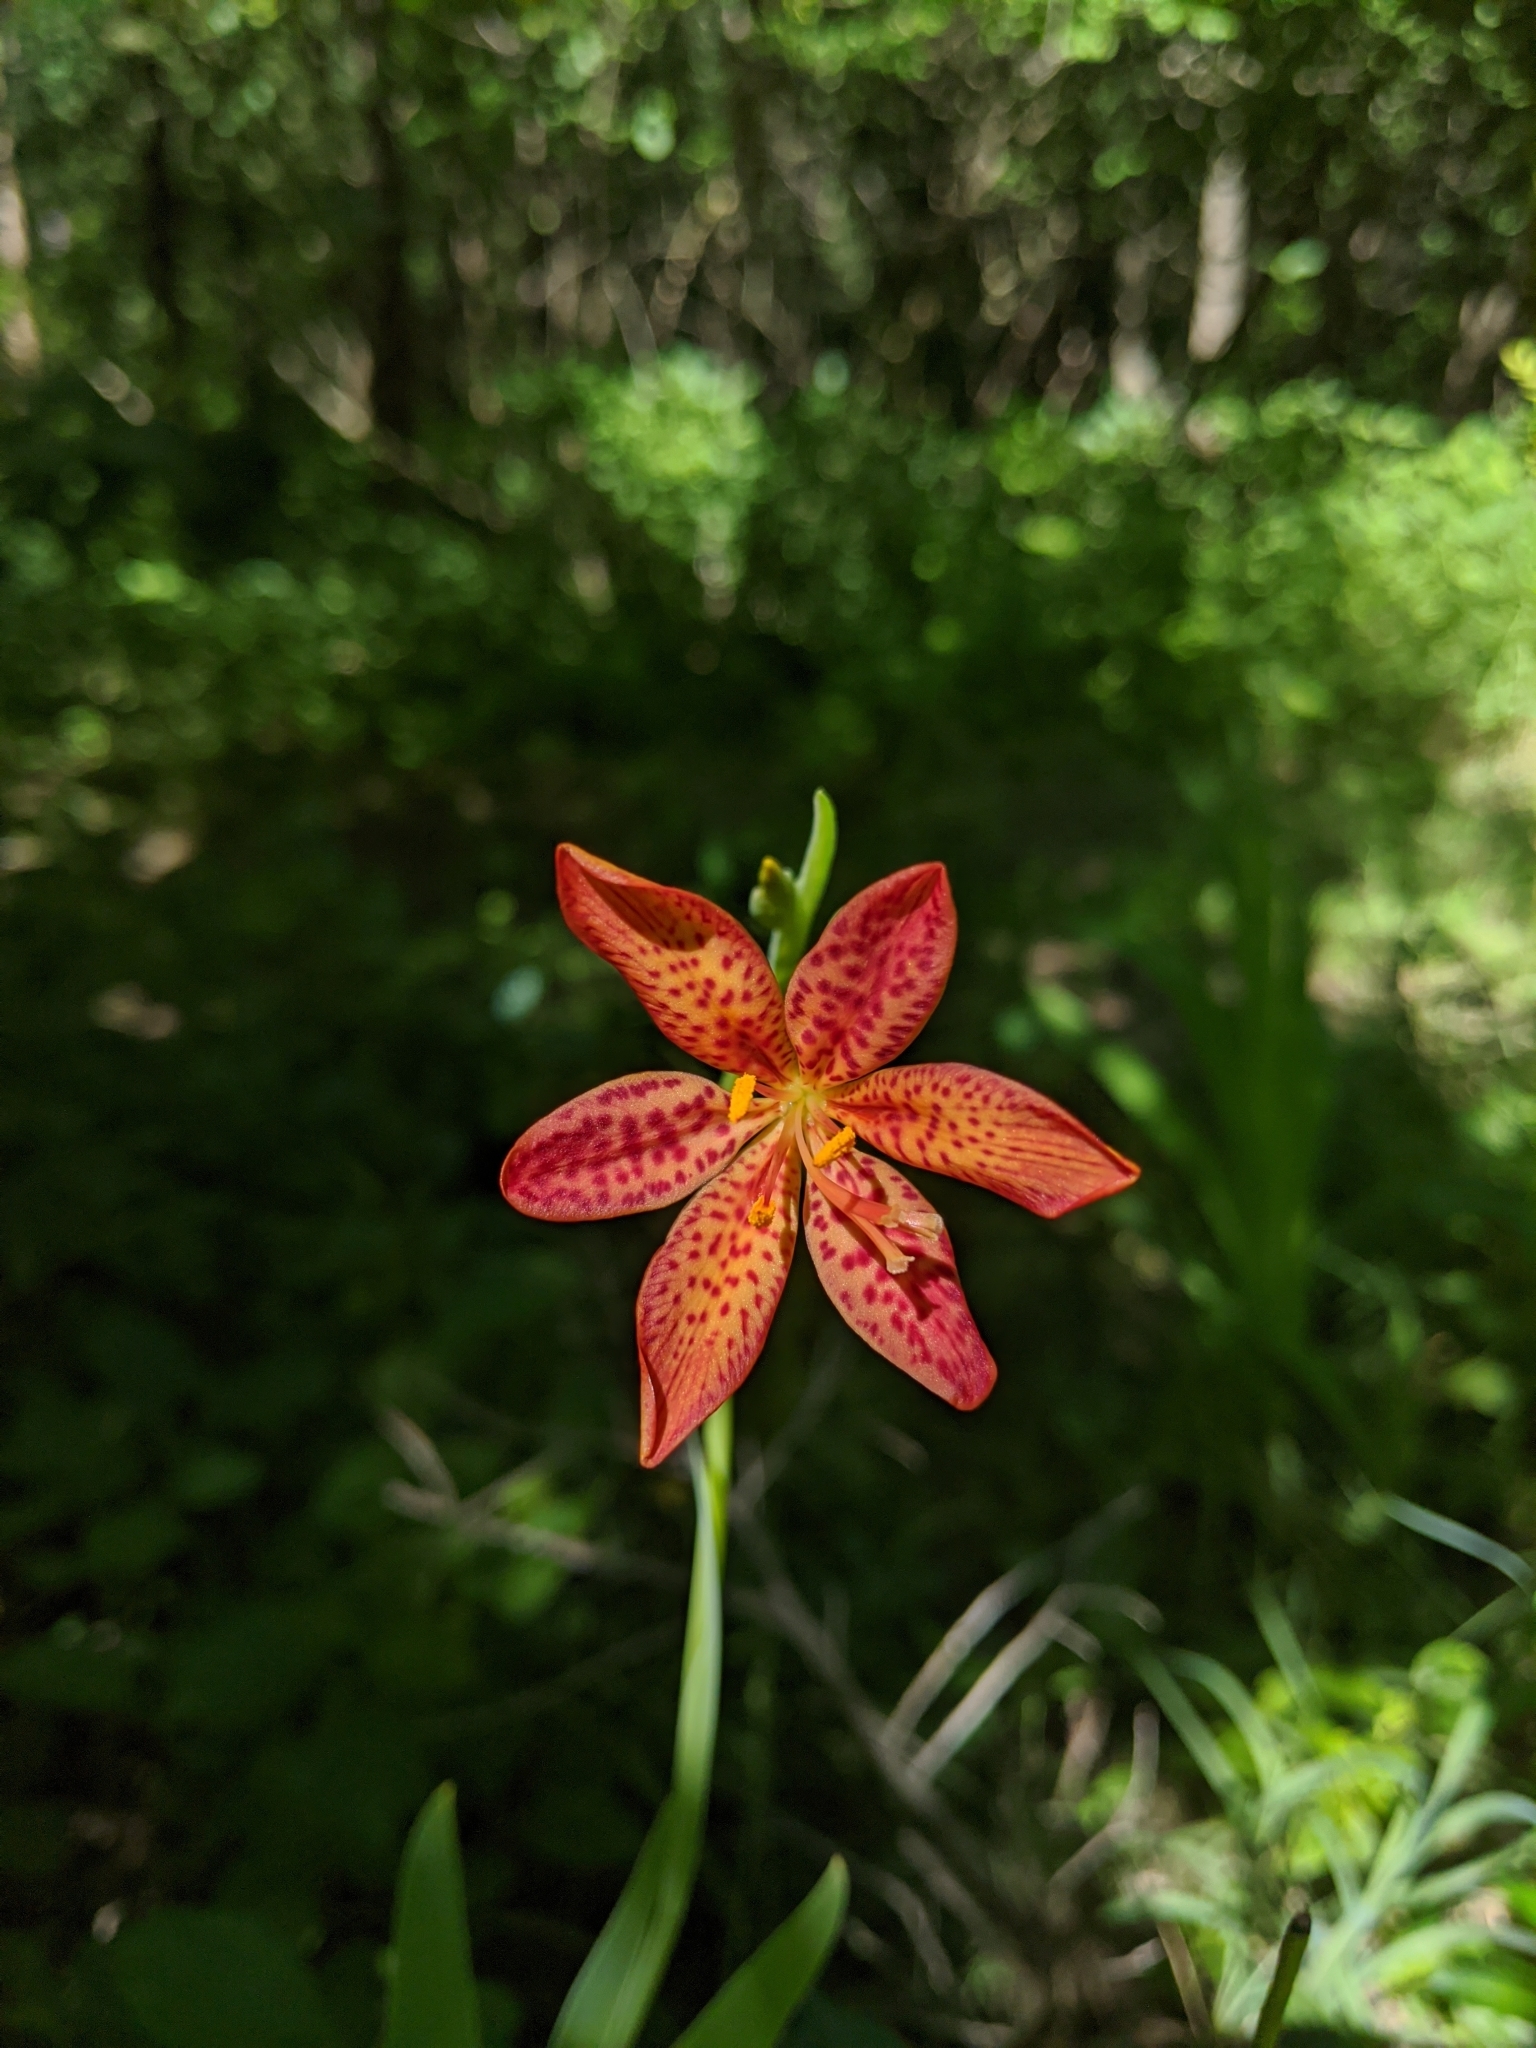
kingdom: Plantae
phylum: Tracheophyta
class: Liliopsida
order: Asparagales
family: Iridaceae
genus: Iris
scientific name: Iris domestica
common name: Belamcanda
